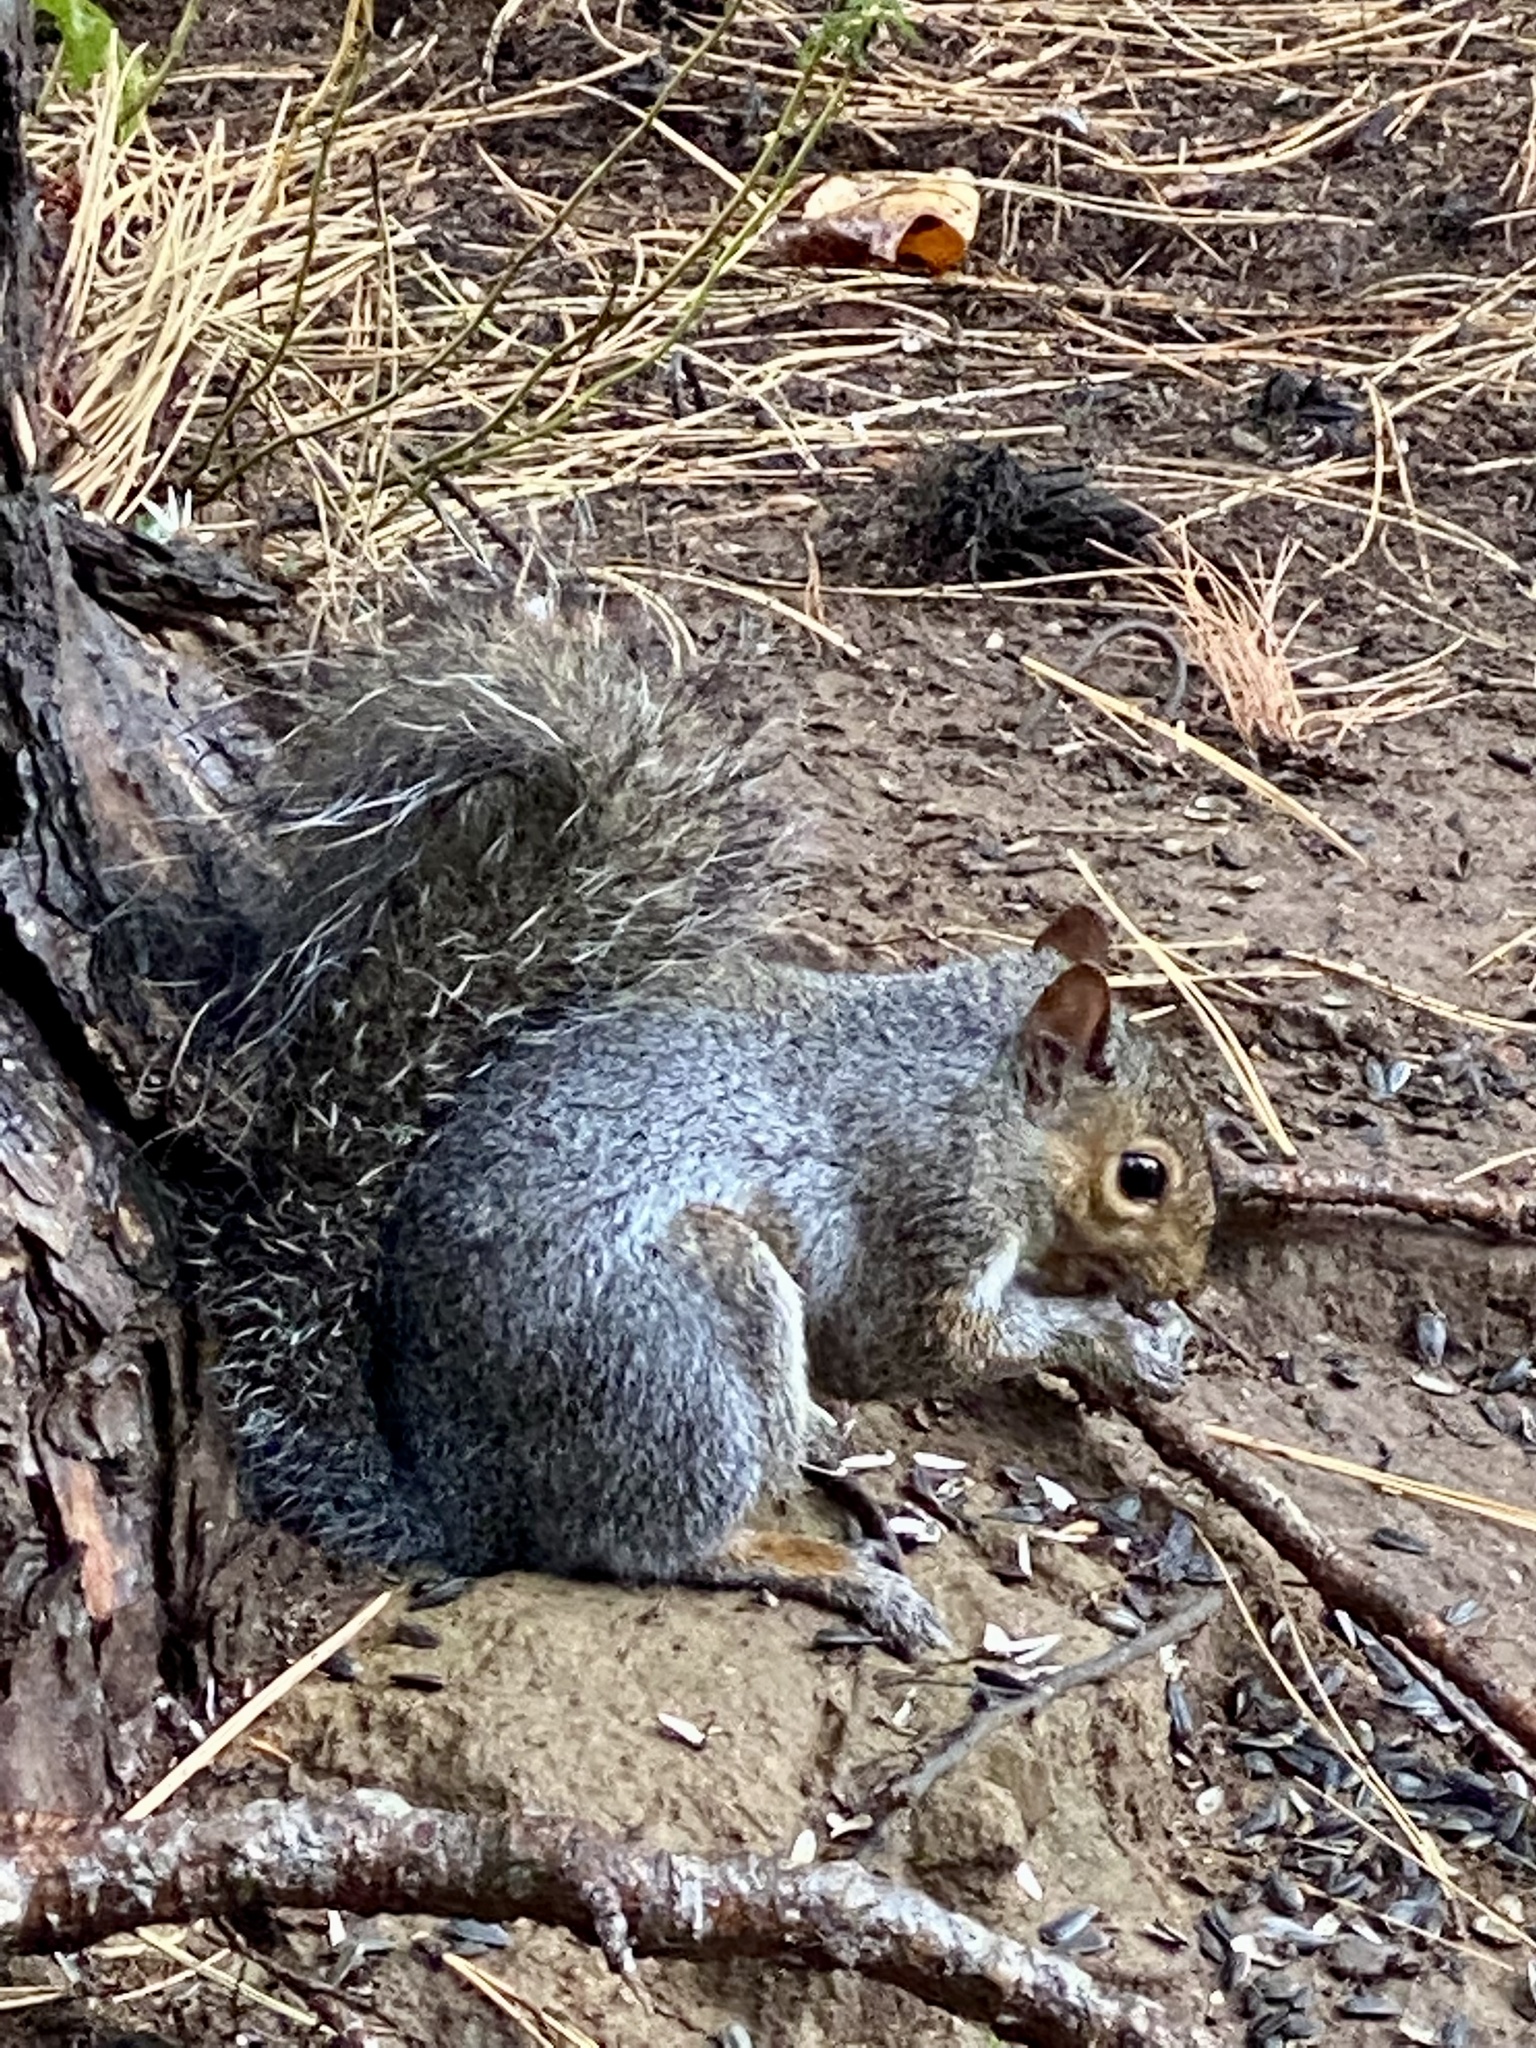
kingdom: Animalia
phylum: Chordata
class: Mammalia
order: Rodentia
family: Sciuridae
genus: Sciurus
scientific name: Sciurus carolinensis
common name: Eastern gray squirrel
